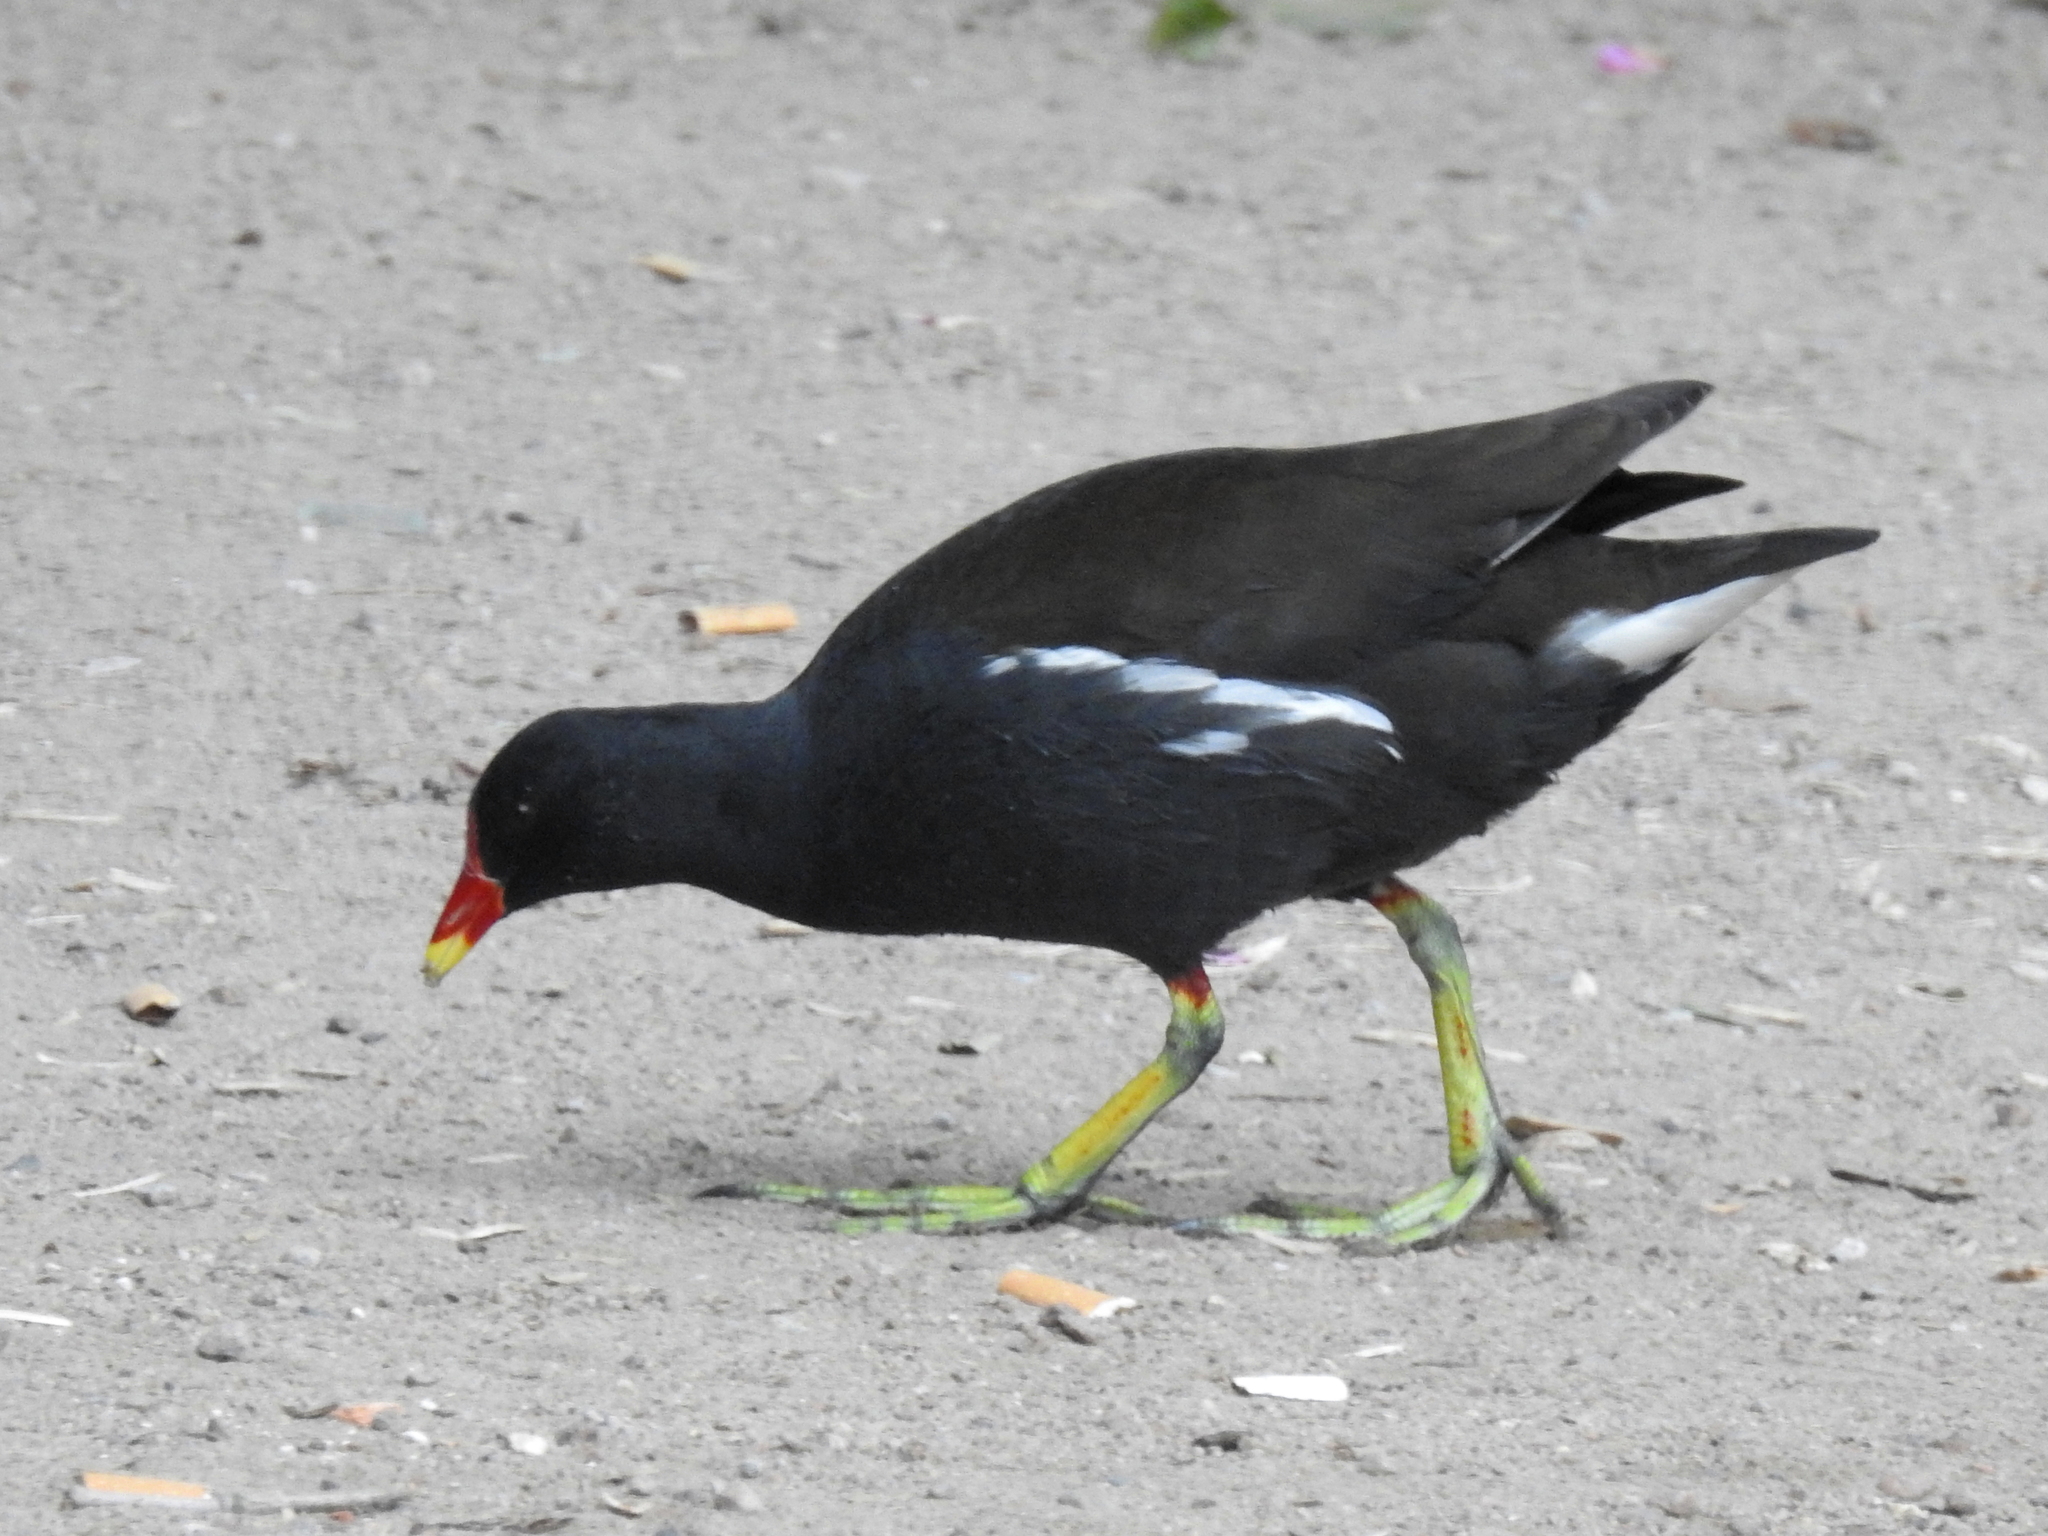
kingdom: Animalia
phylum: Chordata
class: Aves
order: Gruiformes
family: Rallidae
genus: Gallinula
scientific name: Gallinula chloropus
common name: Common moorhen
